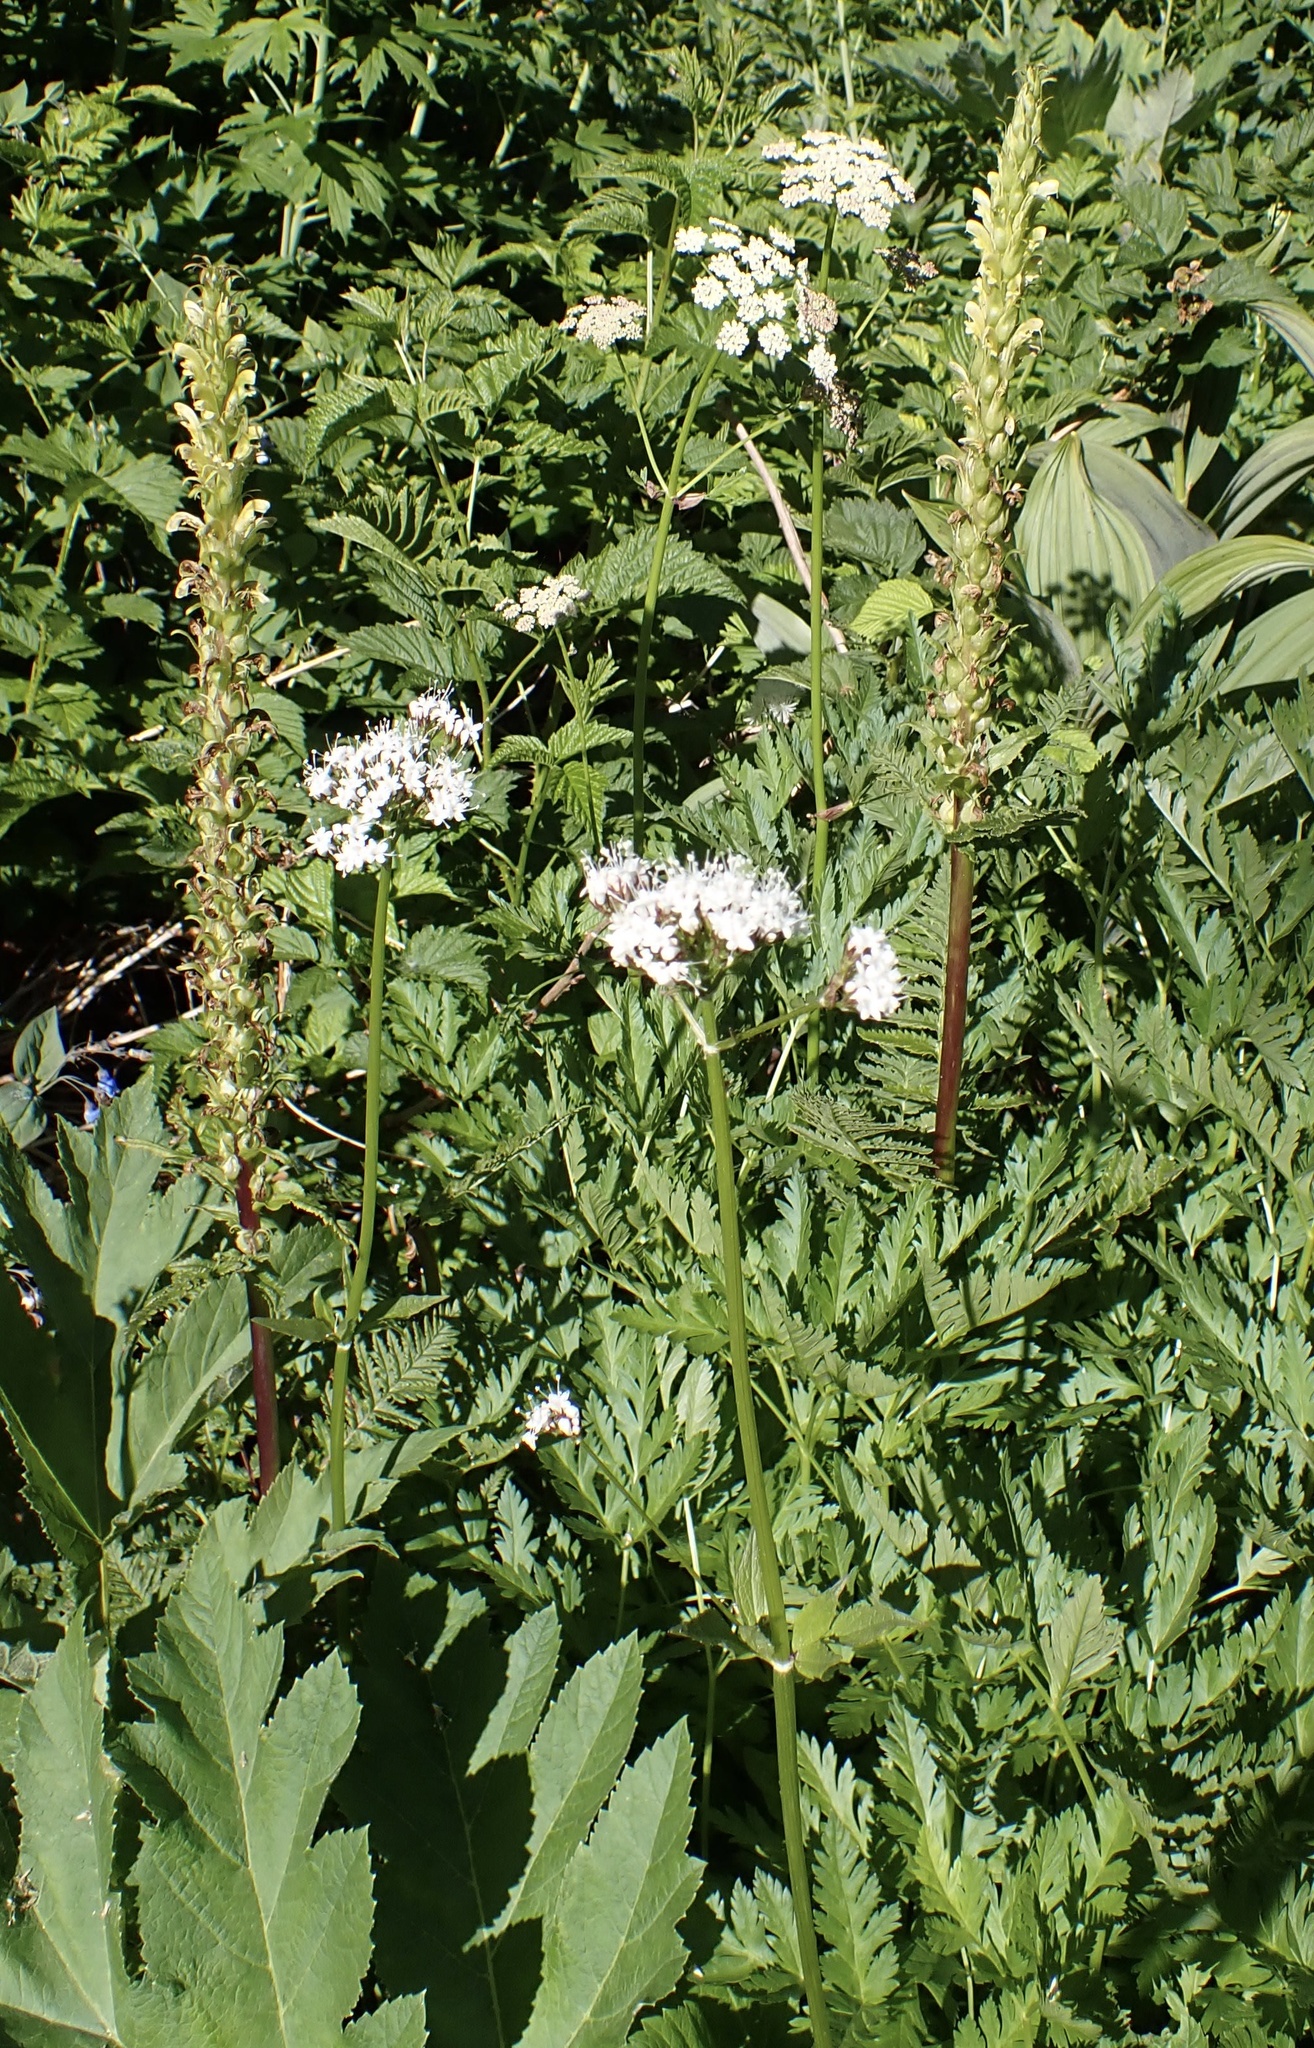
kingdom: Plantae
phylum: Tracheophyta
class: Magnoliopsida
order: Dipsacales
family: Caprifoliaceae
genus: Valeriana
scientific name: Valeriana sitchensis
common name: Pacific valerian
